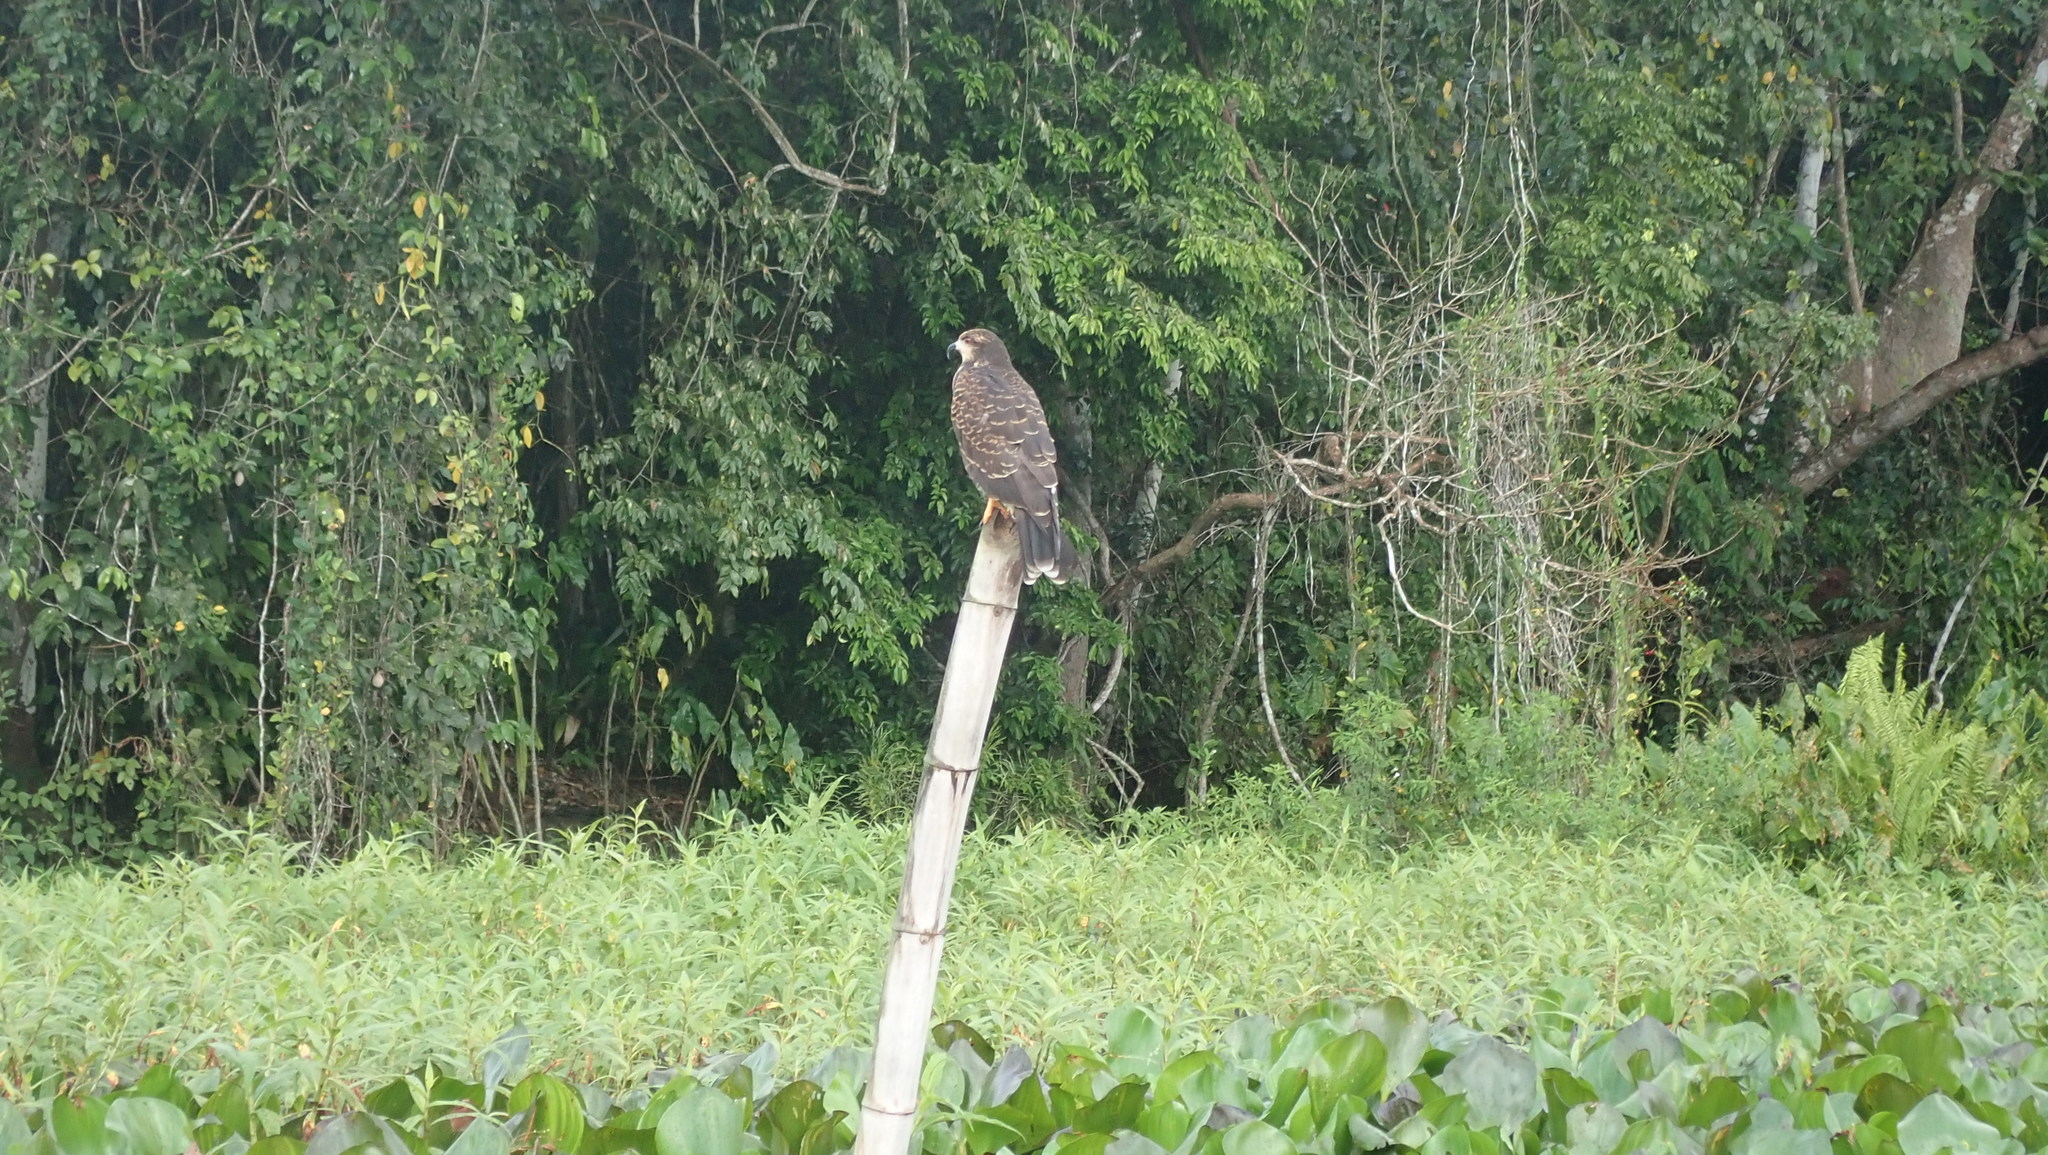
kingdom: Animalia
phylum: Chordata
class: Aves
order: Accipitriformes
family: Accipitridae
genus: Rostrhamus
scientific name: Rostrhamus sociabilis
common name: Snail kite
